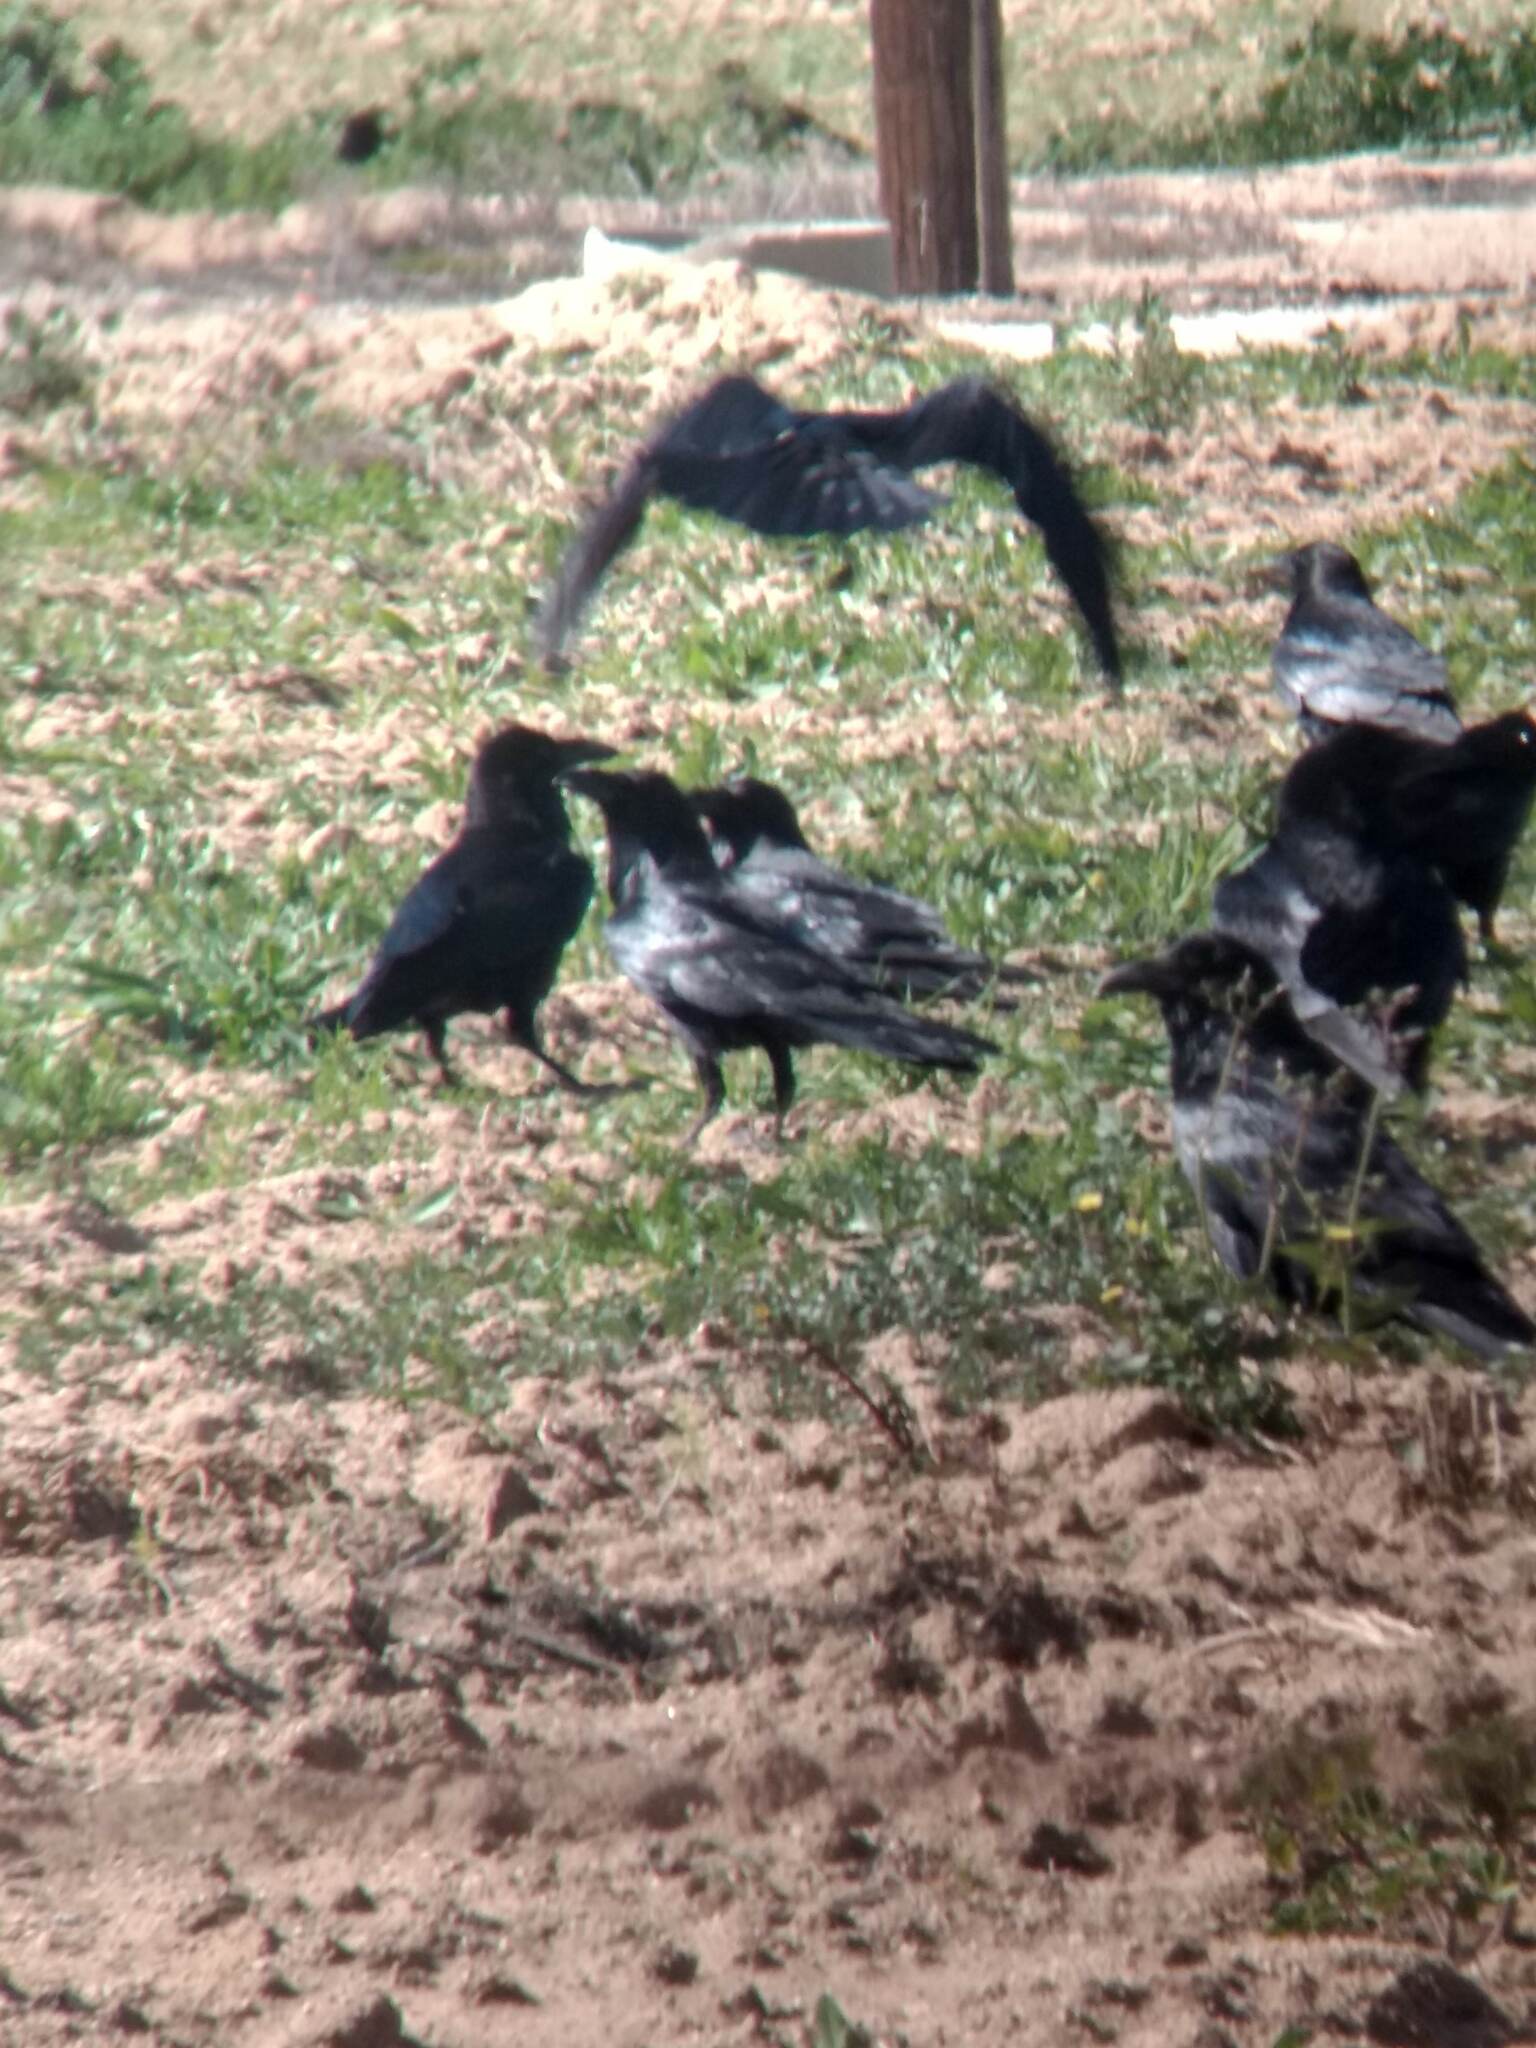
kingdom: Animalia
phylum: Chordata
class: Aves
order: Passeriformes
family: Corvidae
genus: Corvus
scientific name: Corvus corax
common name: Common raven
